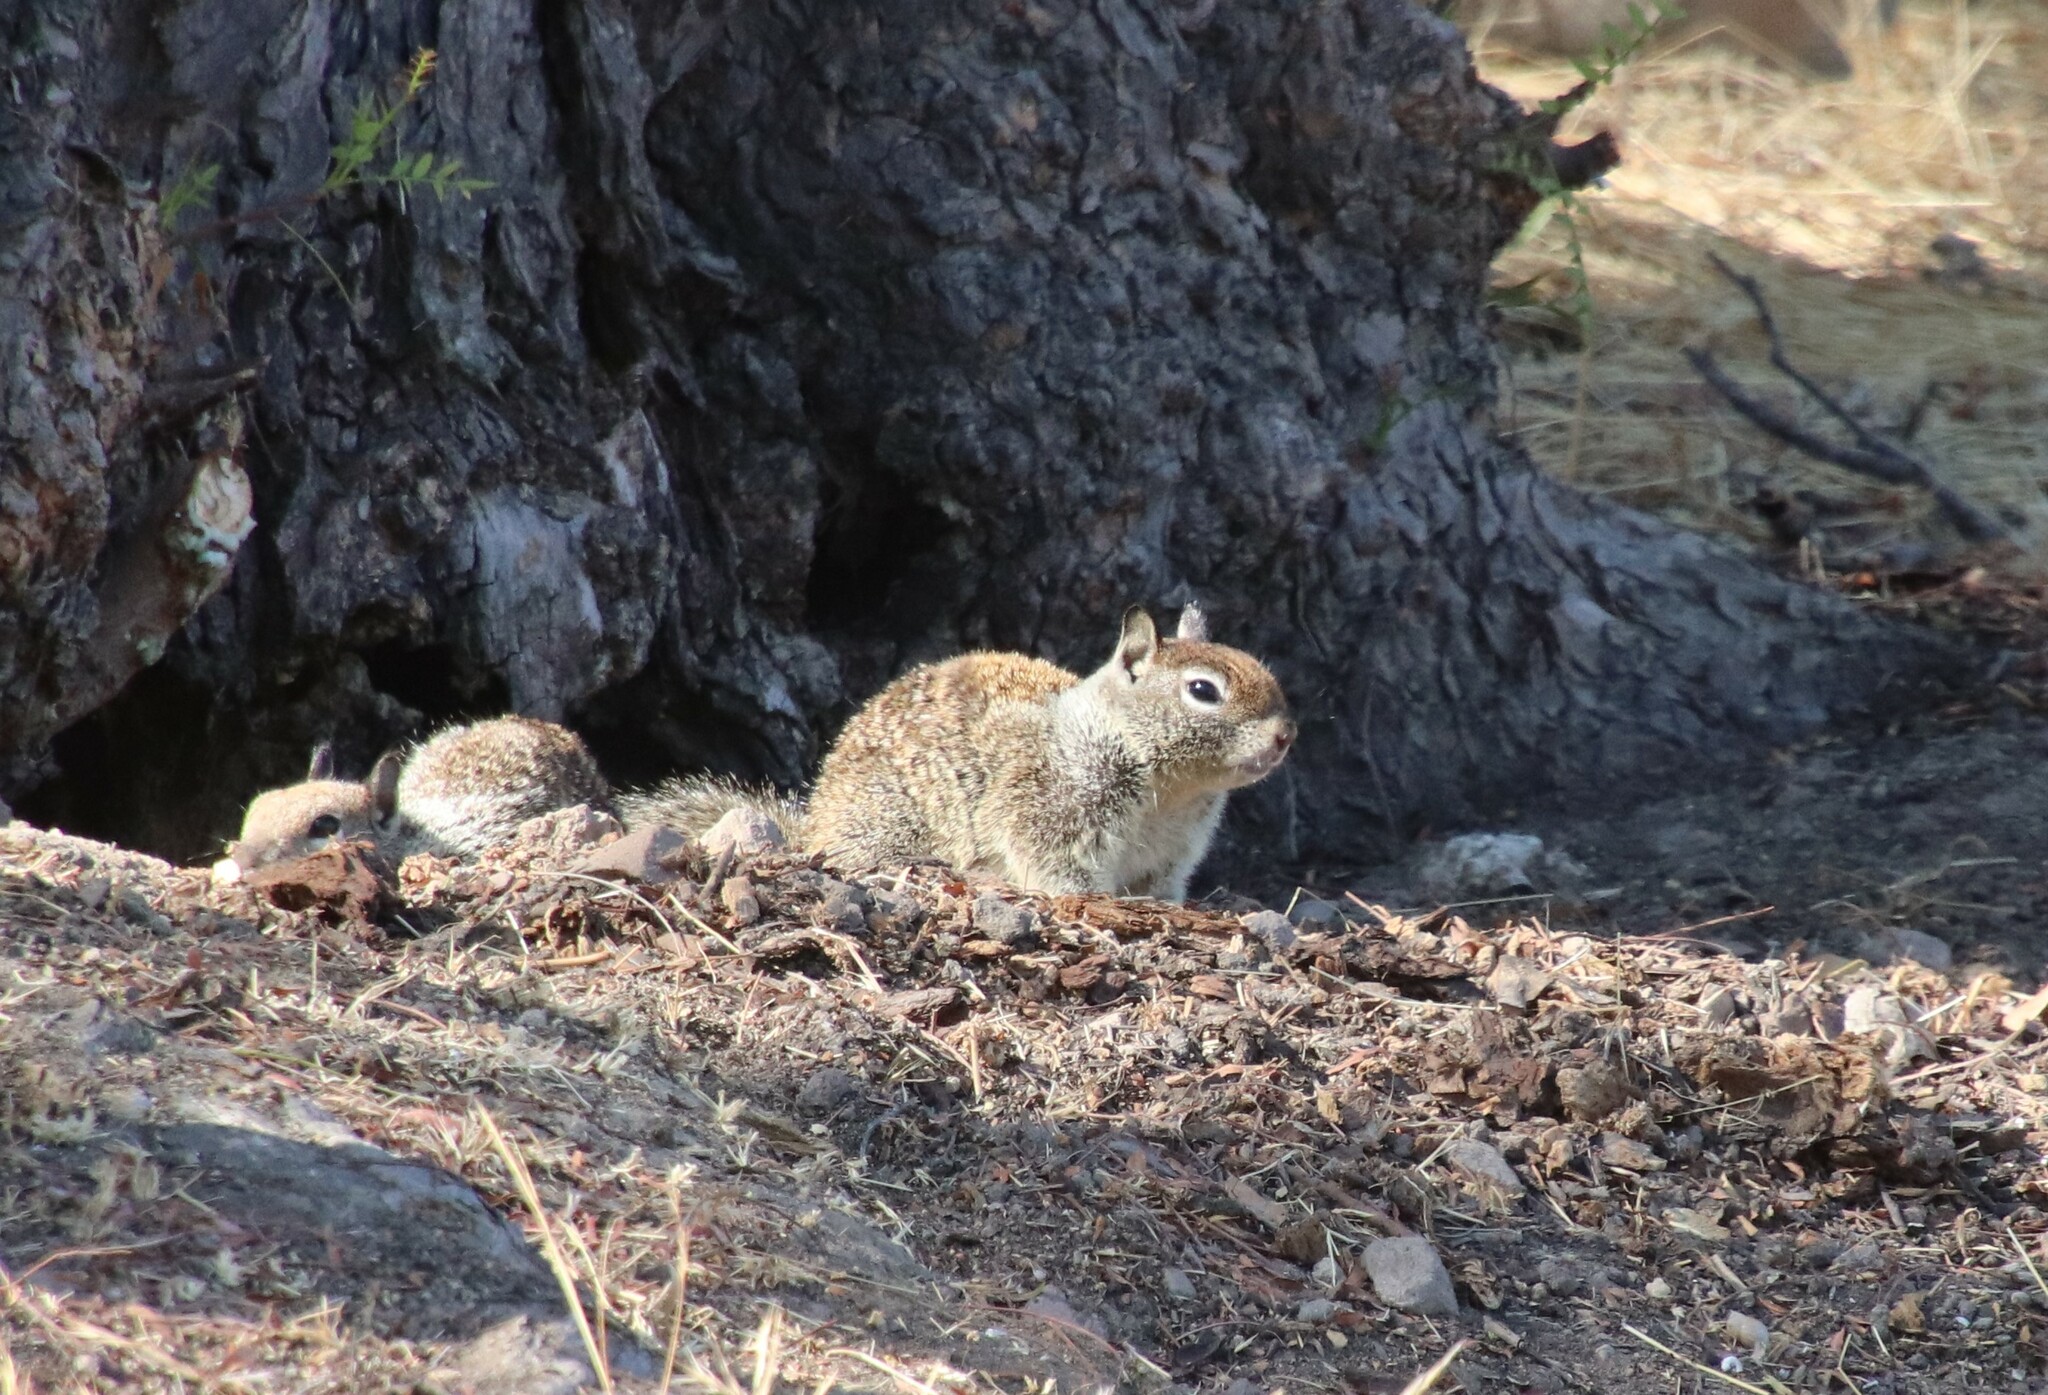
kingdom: Animalia
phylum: Chordata
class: Mammalia
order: Rodentia
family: Sciuridae
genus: Otospermophilus
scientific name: Otospermophilus beecheyi
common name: California ground squirrel
